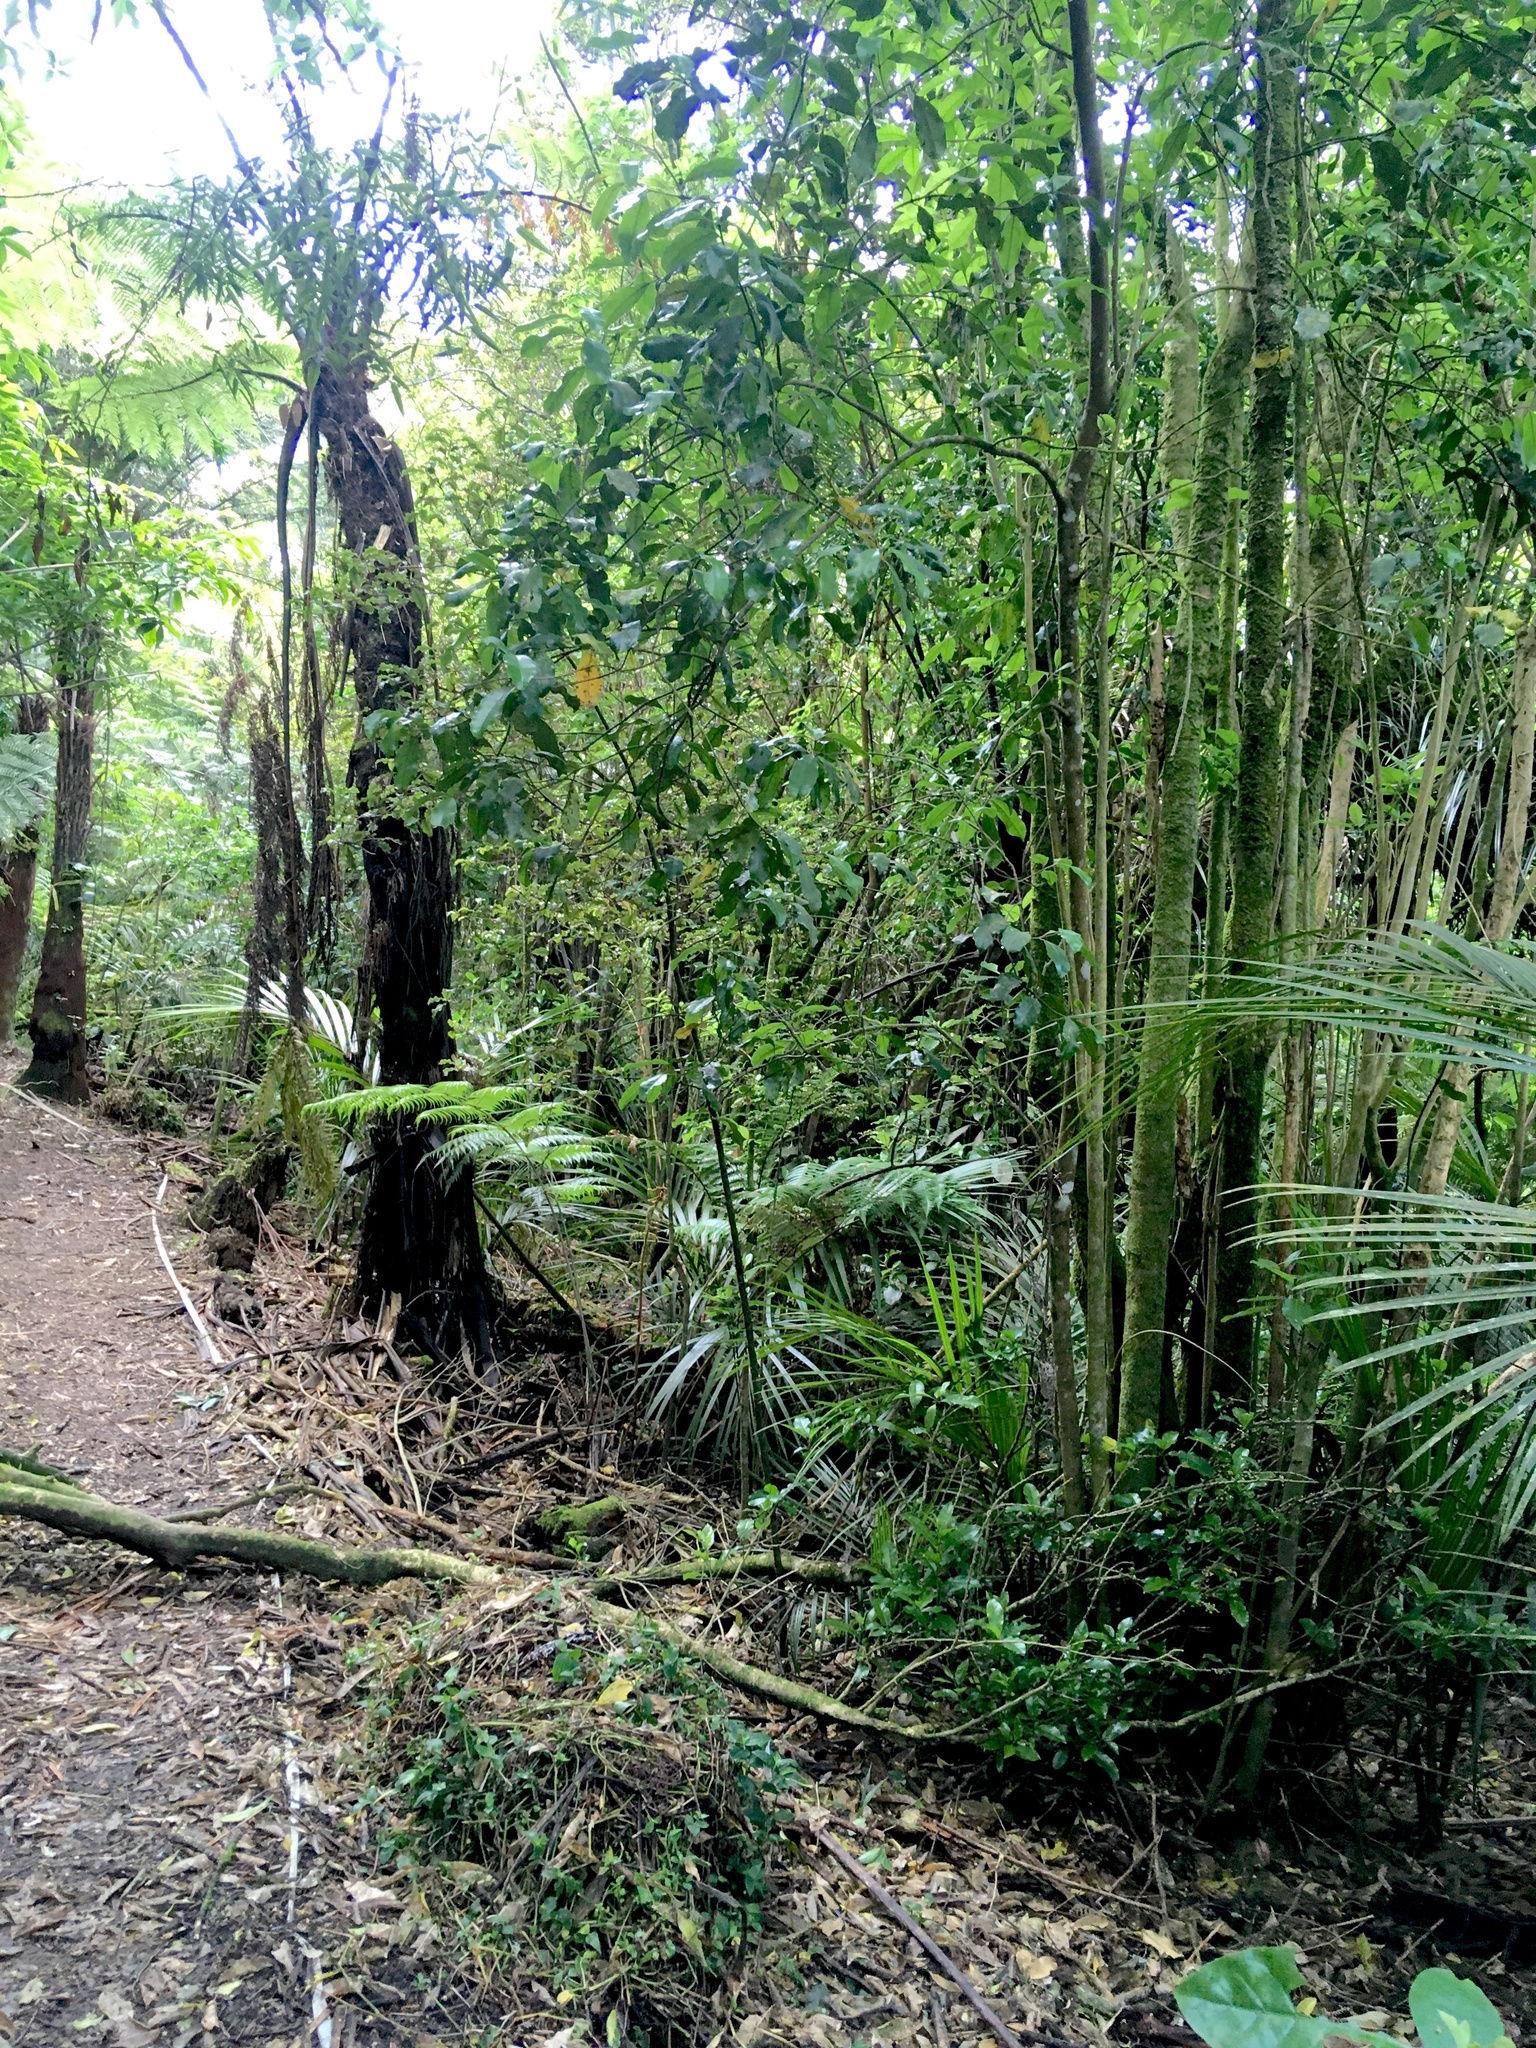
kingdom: Plantae
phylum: Tracheophyta
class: Liliopsida
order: Commelinales
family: Commelinaceae
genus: Tradescantia
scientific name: Tradescantia fluminensis
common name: Wandering-jew
